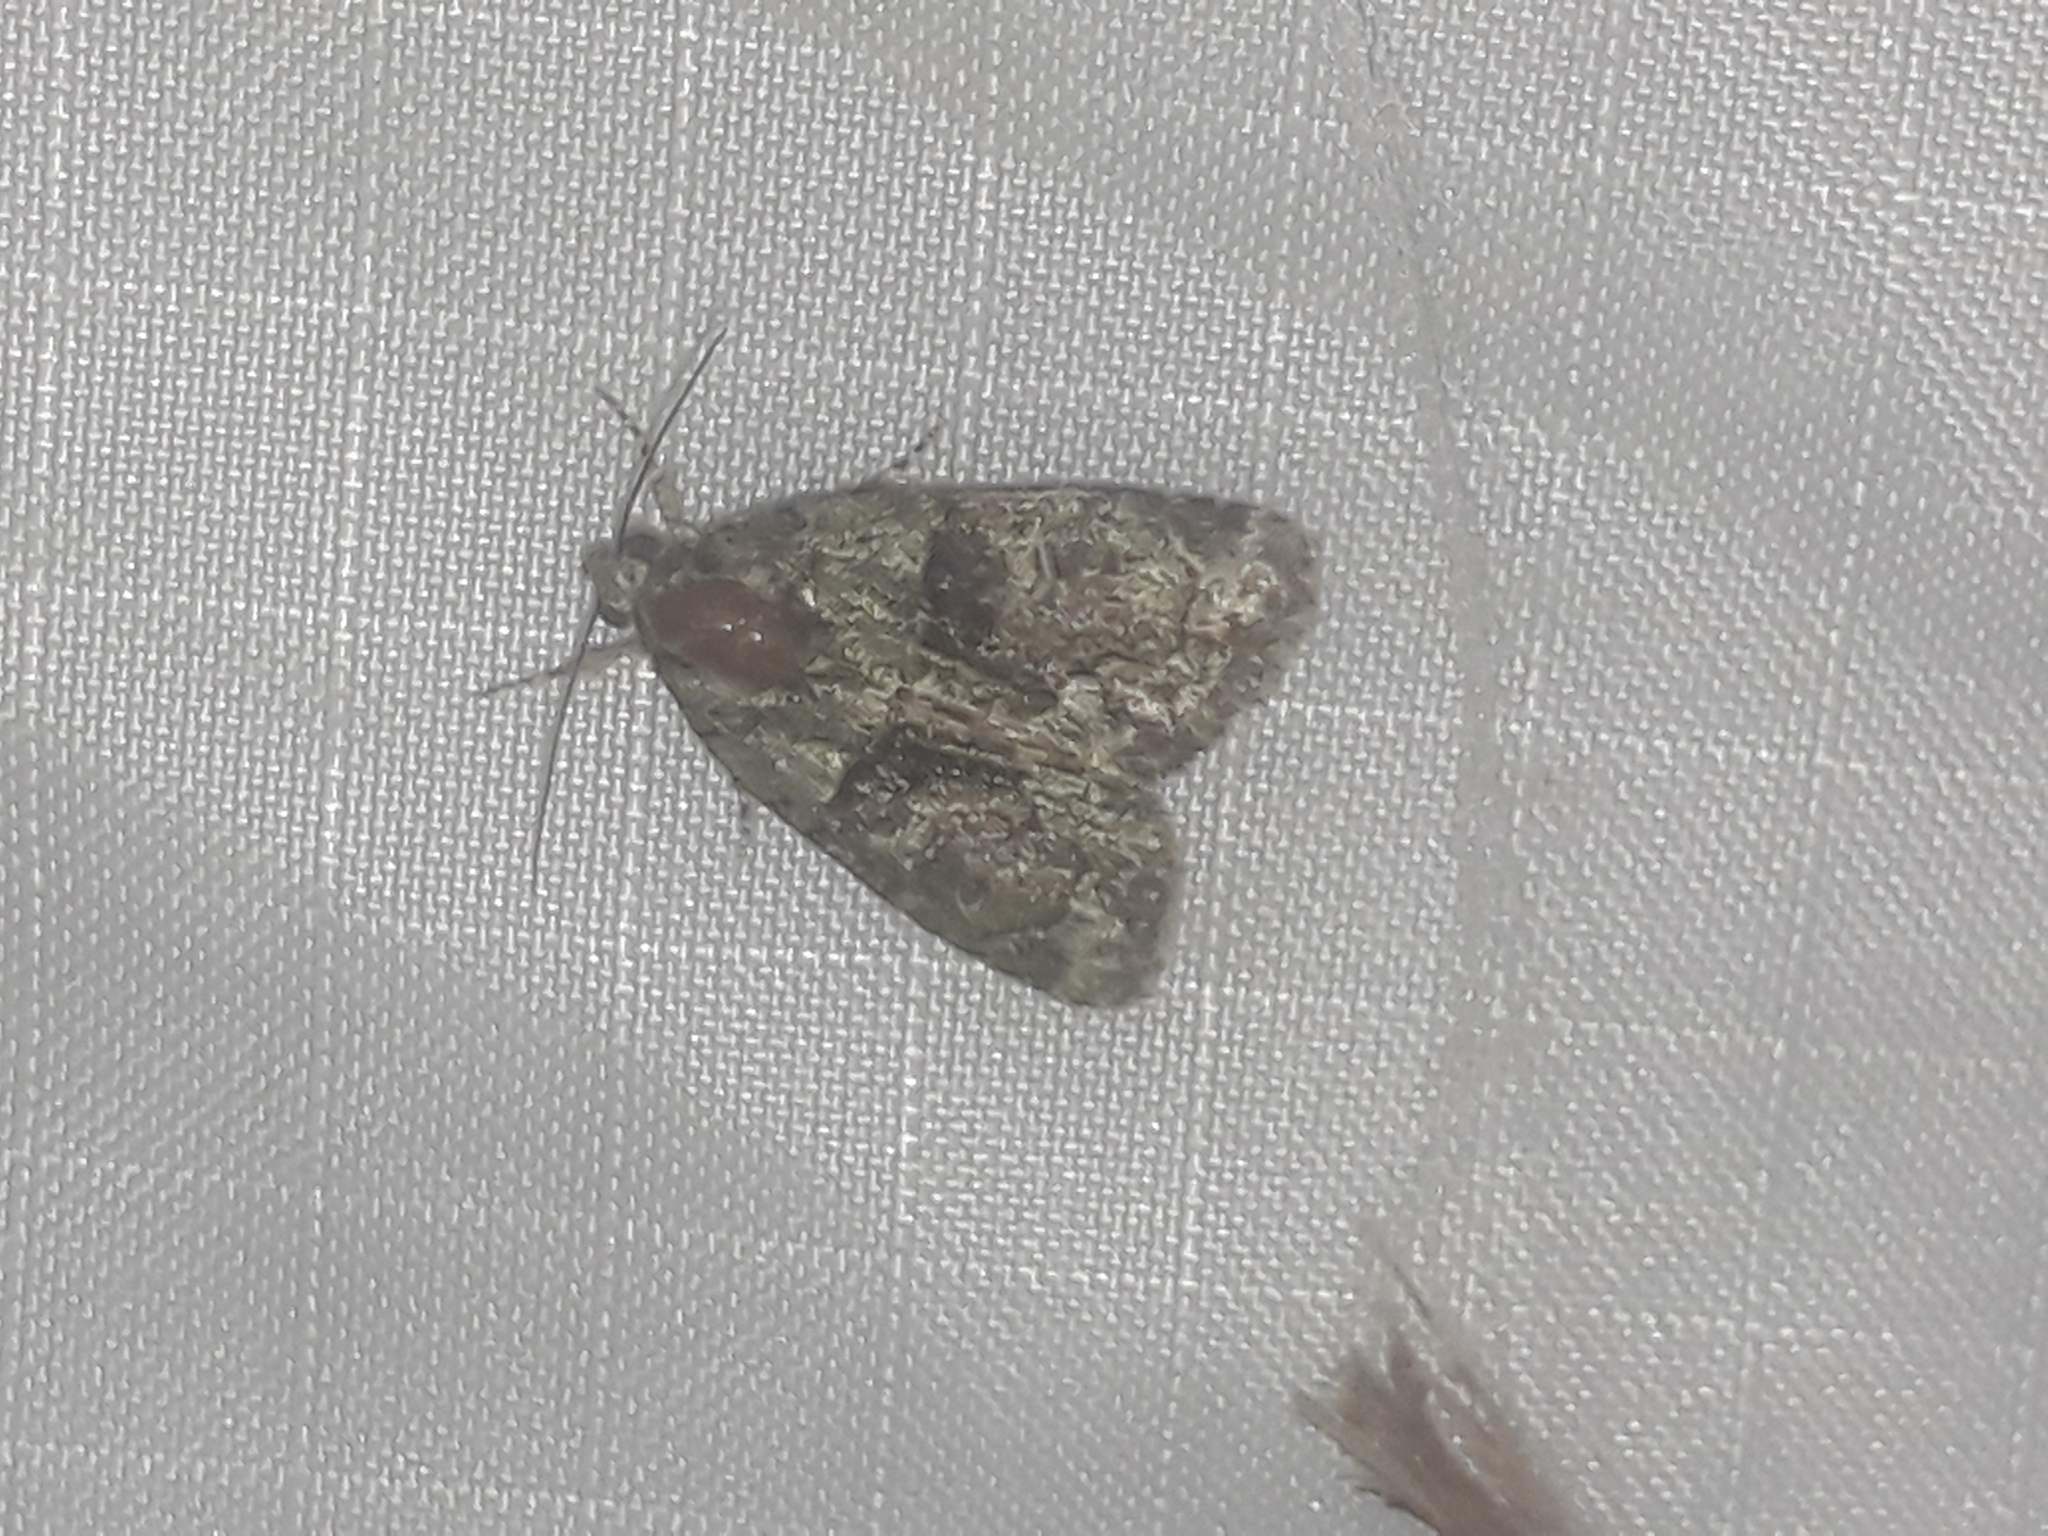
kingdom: Animalia
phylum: Arthropoda
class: Insecta
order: Lepidoptera
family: Noctuidae
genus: Cryphia
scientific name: Cryphia algae
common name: Tree-lichen beauty
